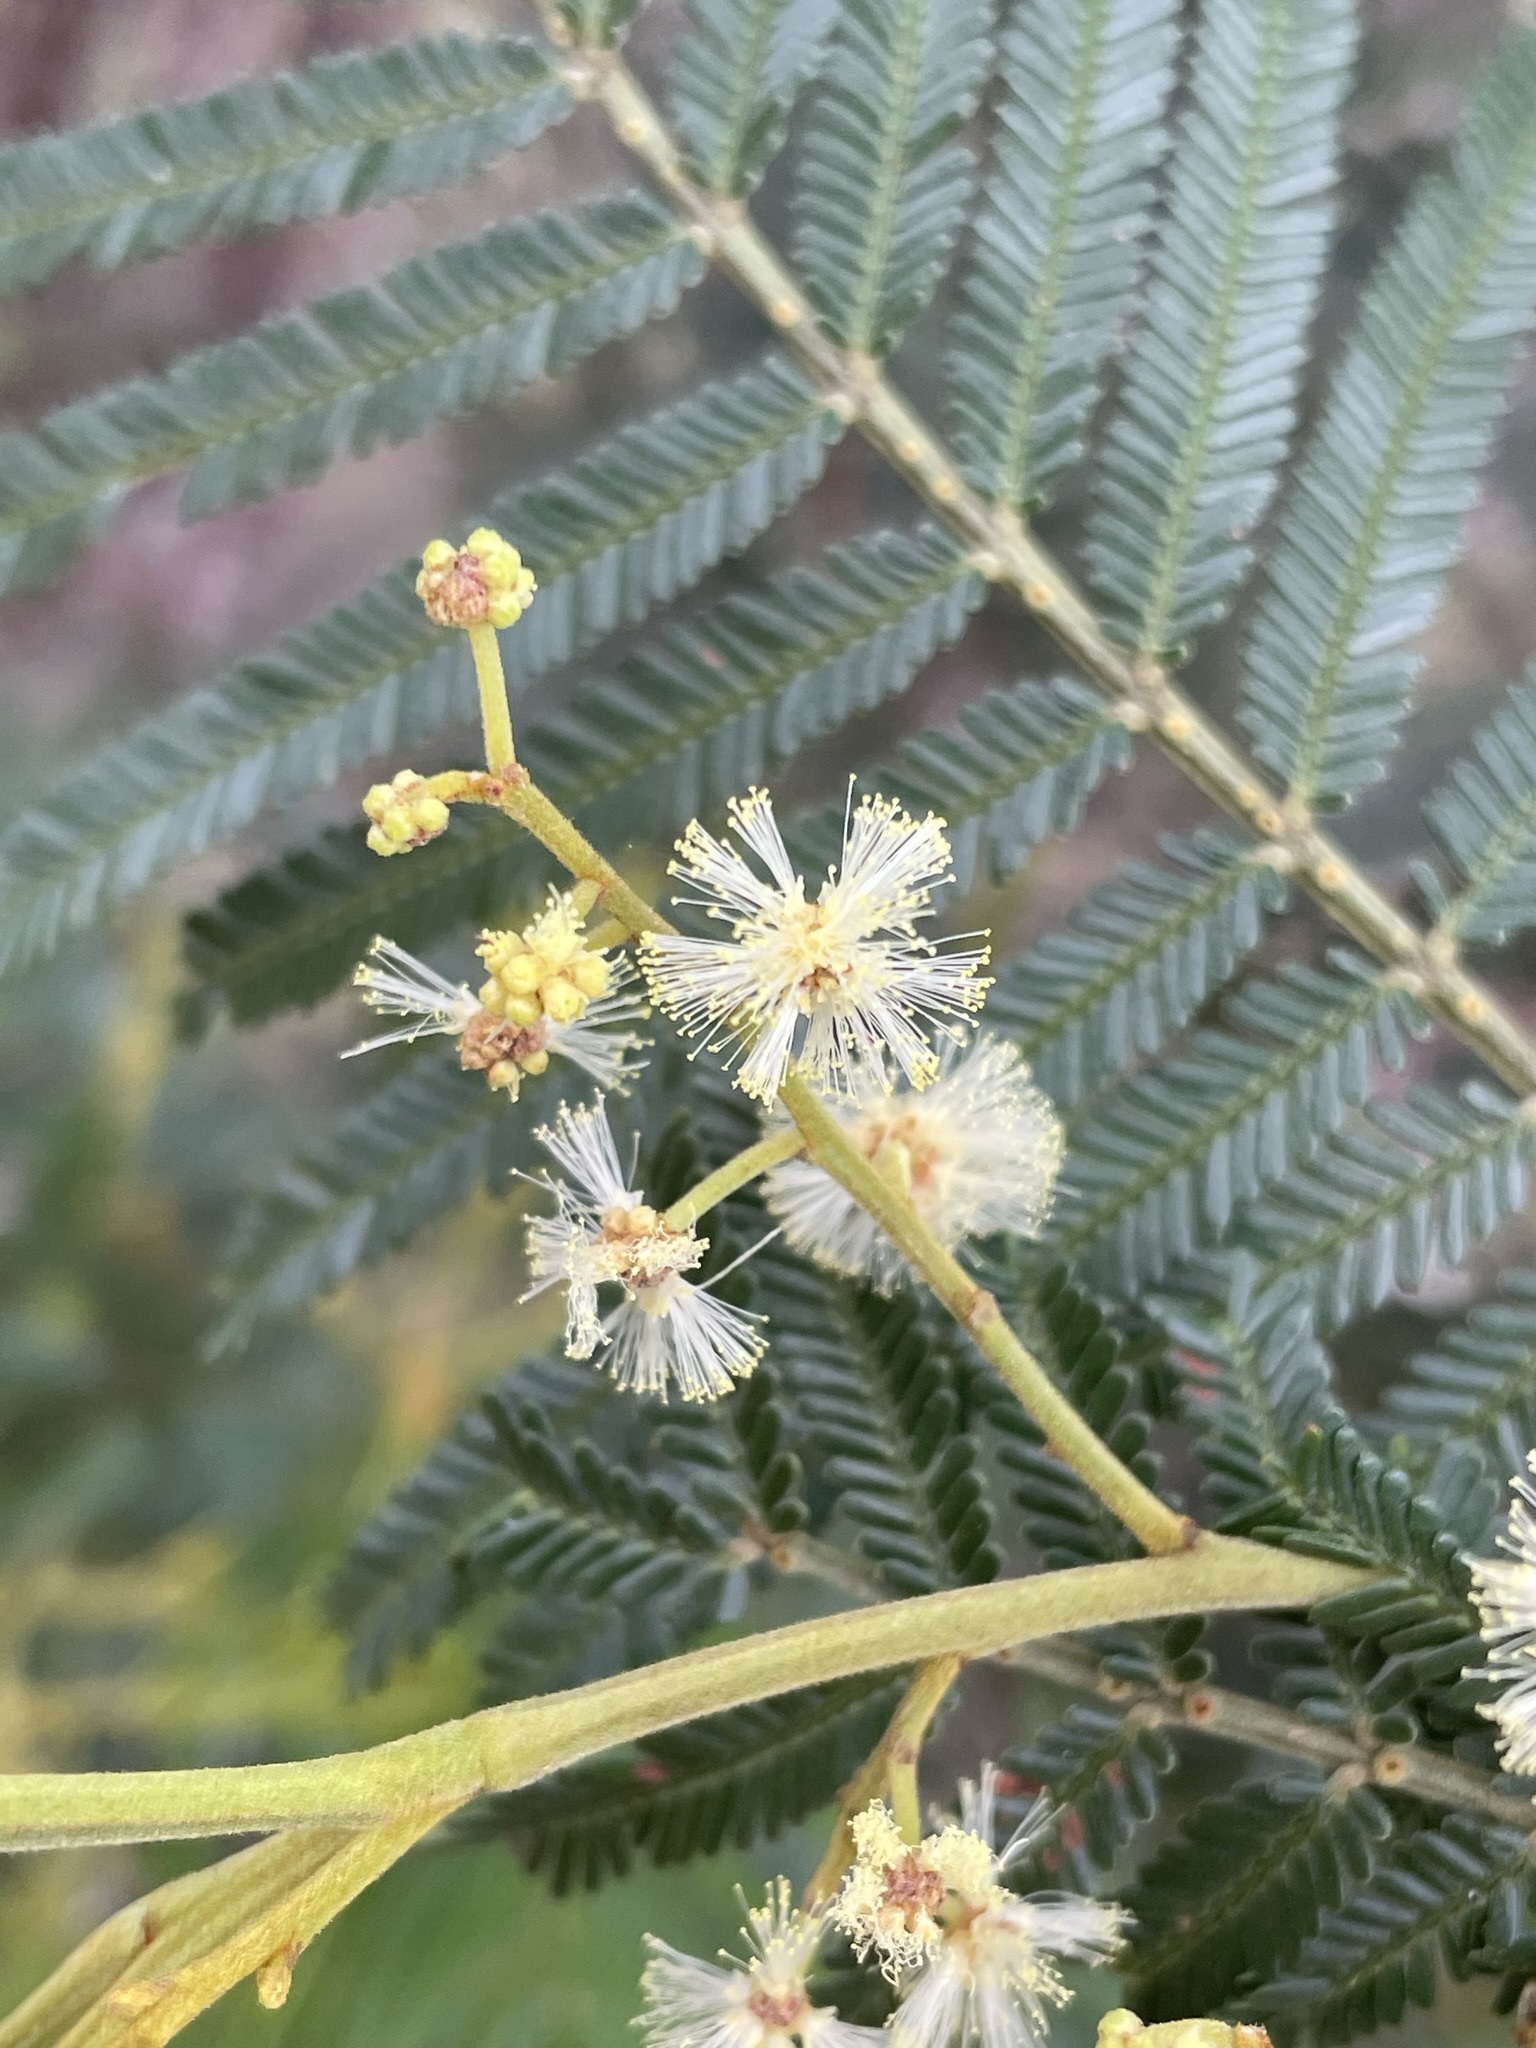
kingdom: Plantae
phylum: Tracheophyta
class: Magnoliopsida
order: Fabales
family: Fabaceae
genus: Acacia
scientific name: Acacia mearnsii
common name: Black wattle
